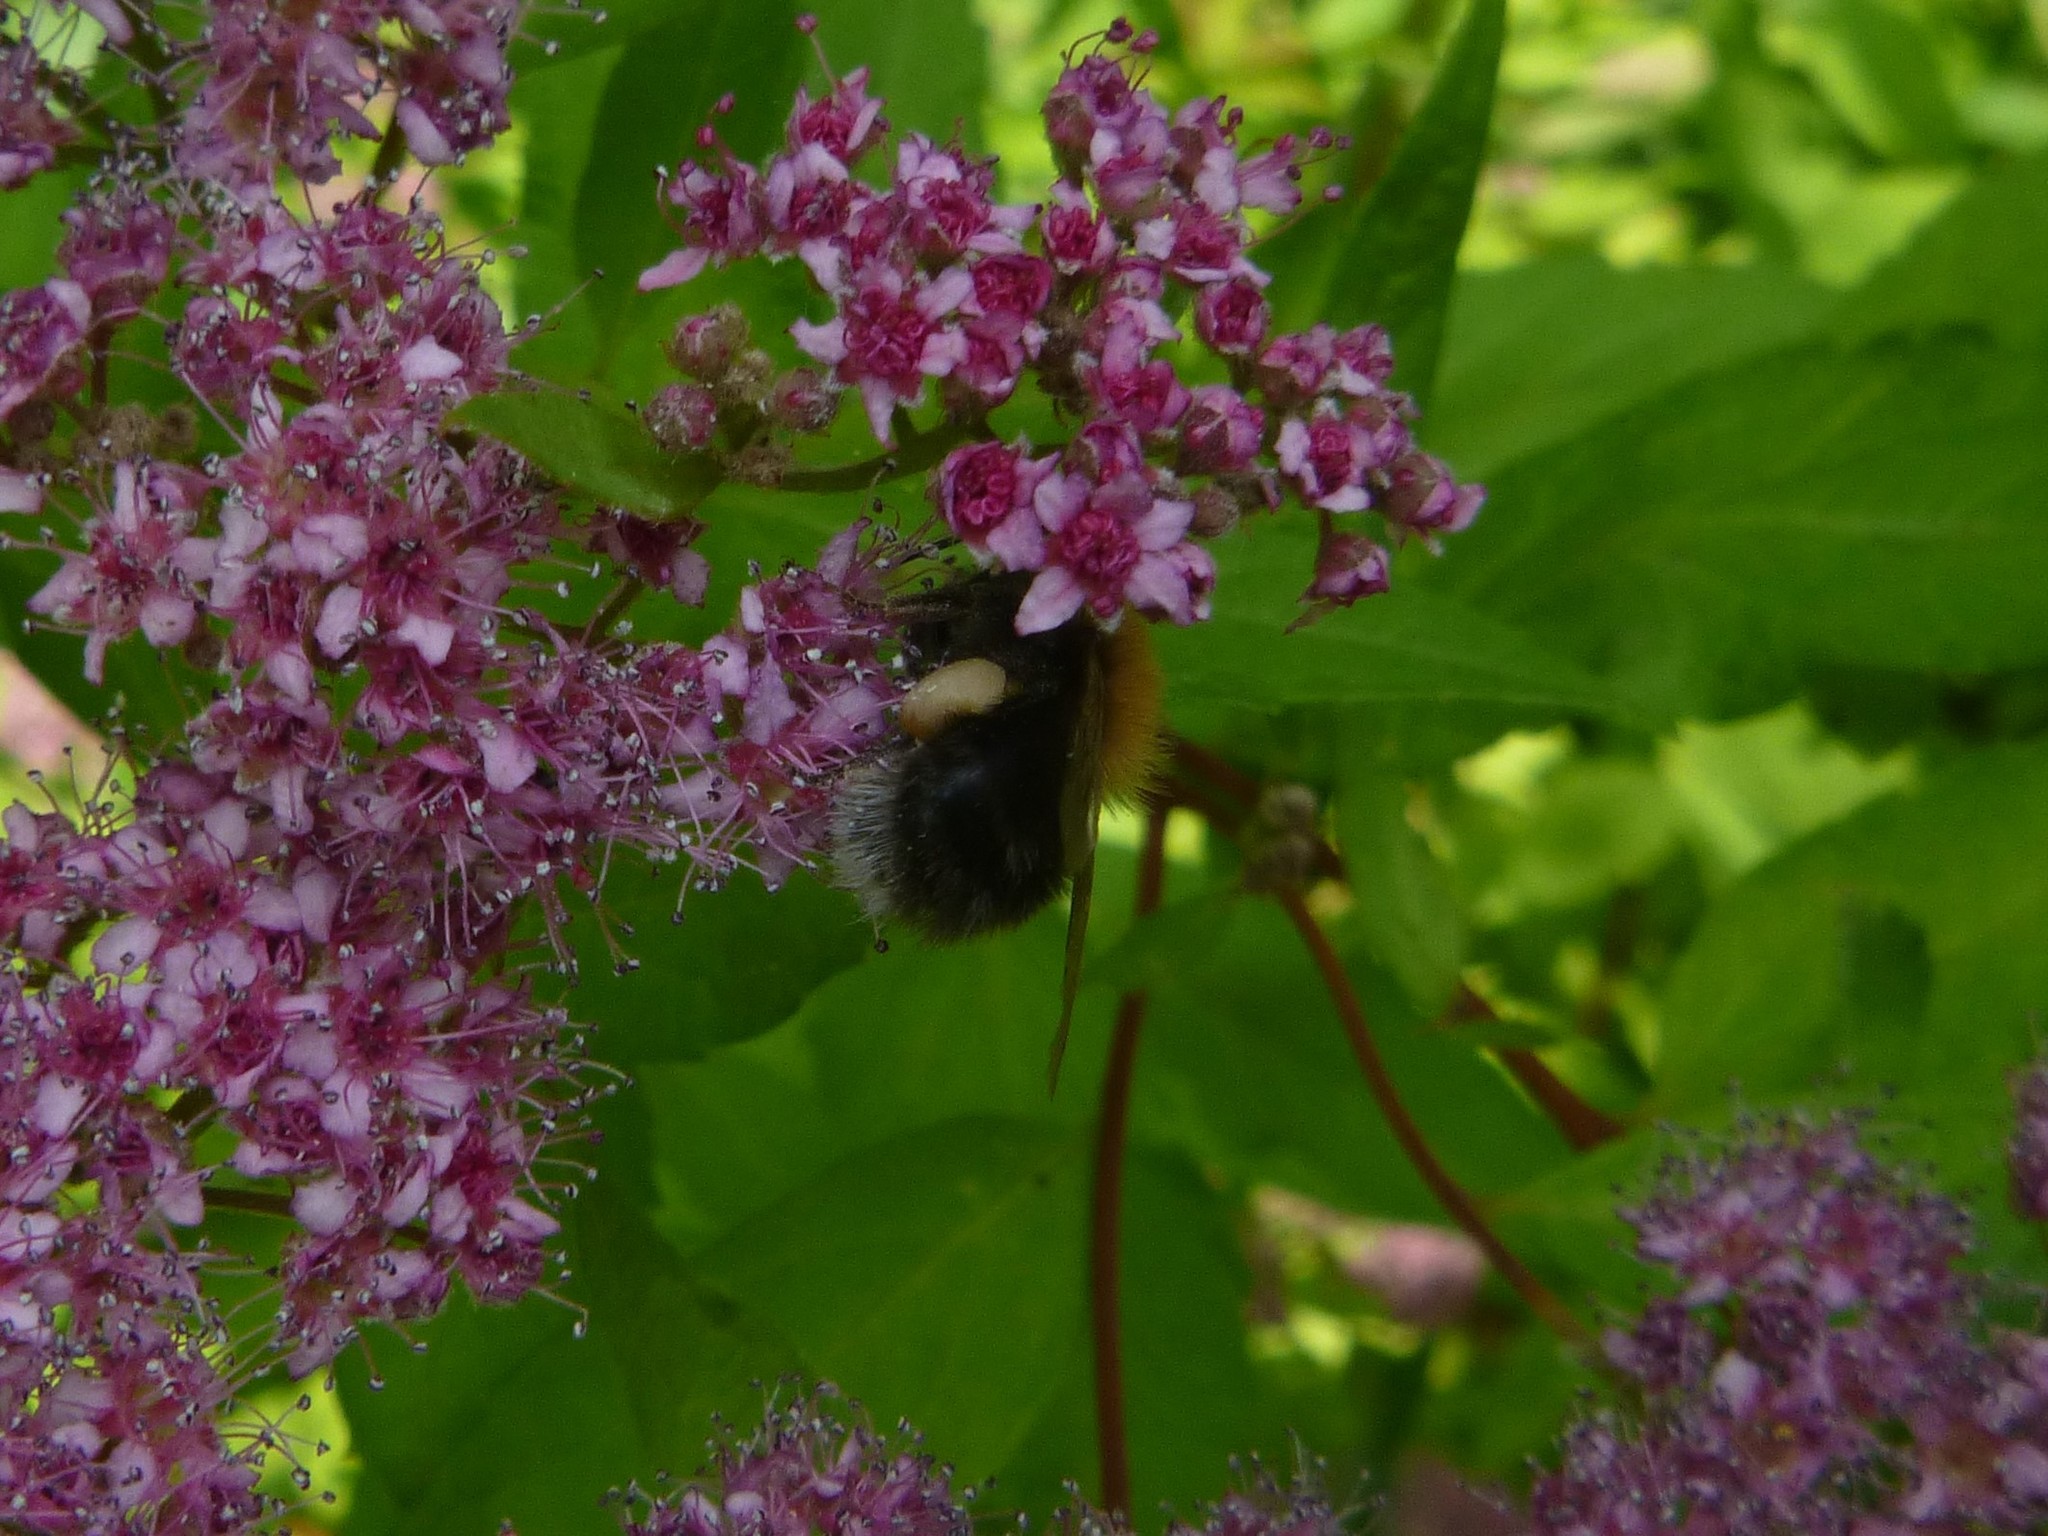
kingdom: Animalia
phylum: Arthropoda
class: Insecta
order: Hymenoptera
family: Apidae
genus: Bombus
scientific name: Bombus hypnorum
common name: New garden bumblebee
